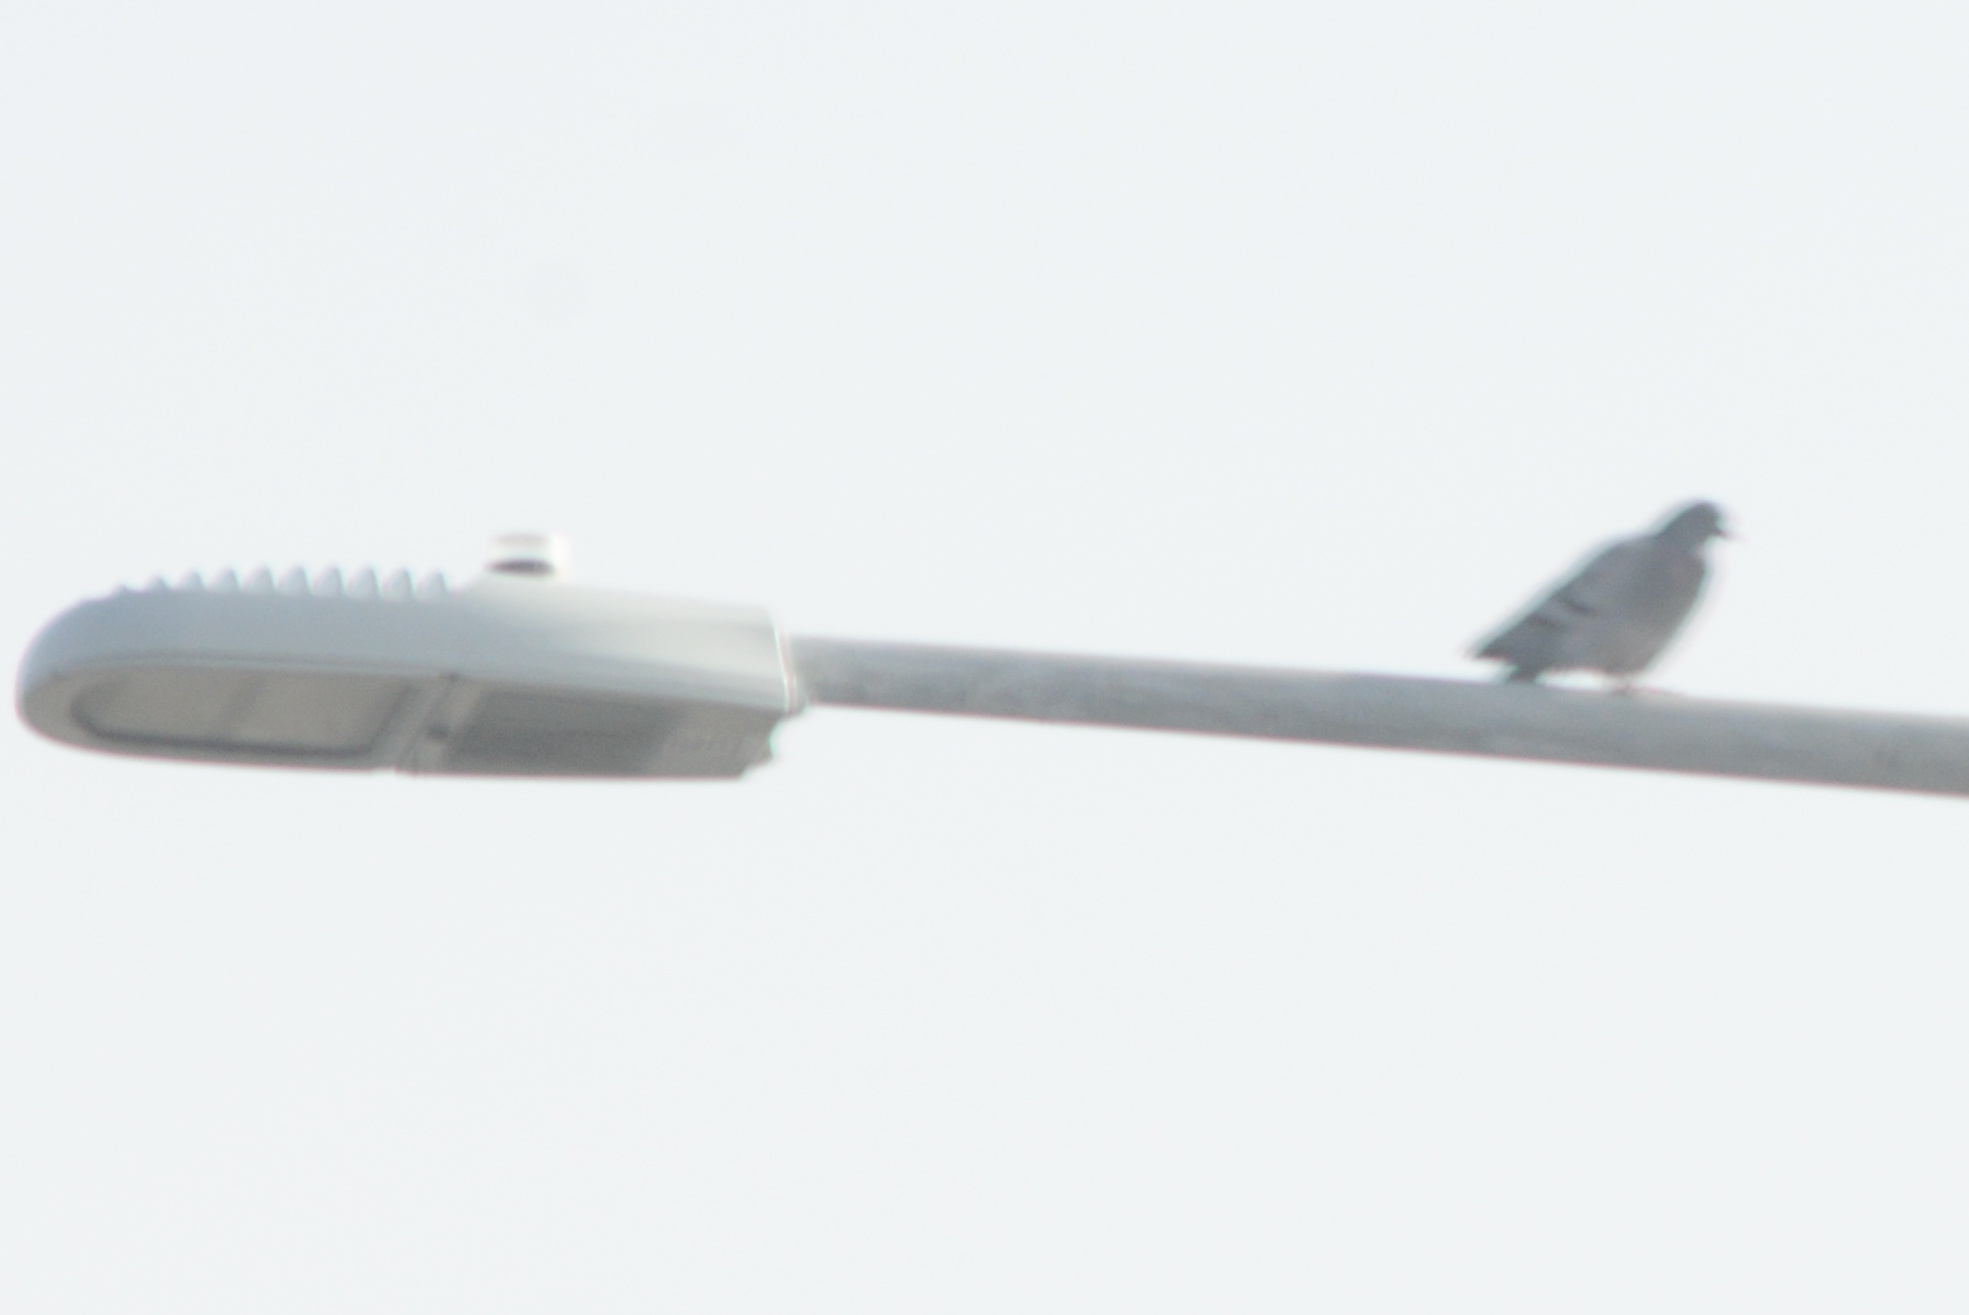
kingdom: Animalia
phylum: Chordata
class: Aves
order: Columbiformes
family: Columbidae
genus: Columba
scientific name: Columba livia
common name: Rock pigeon
